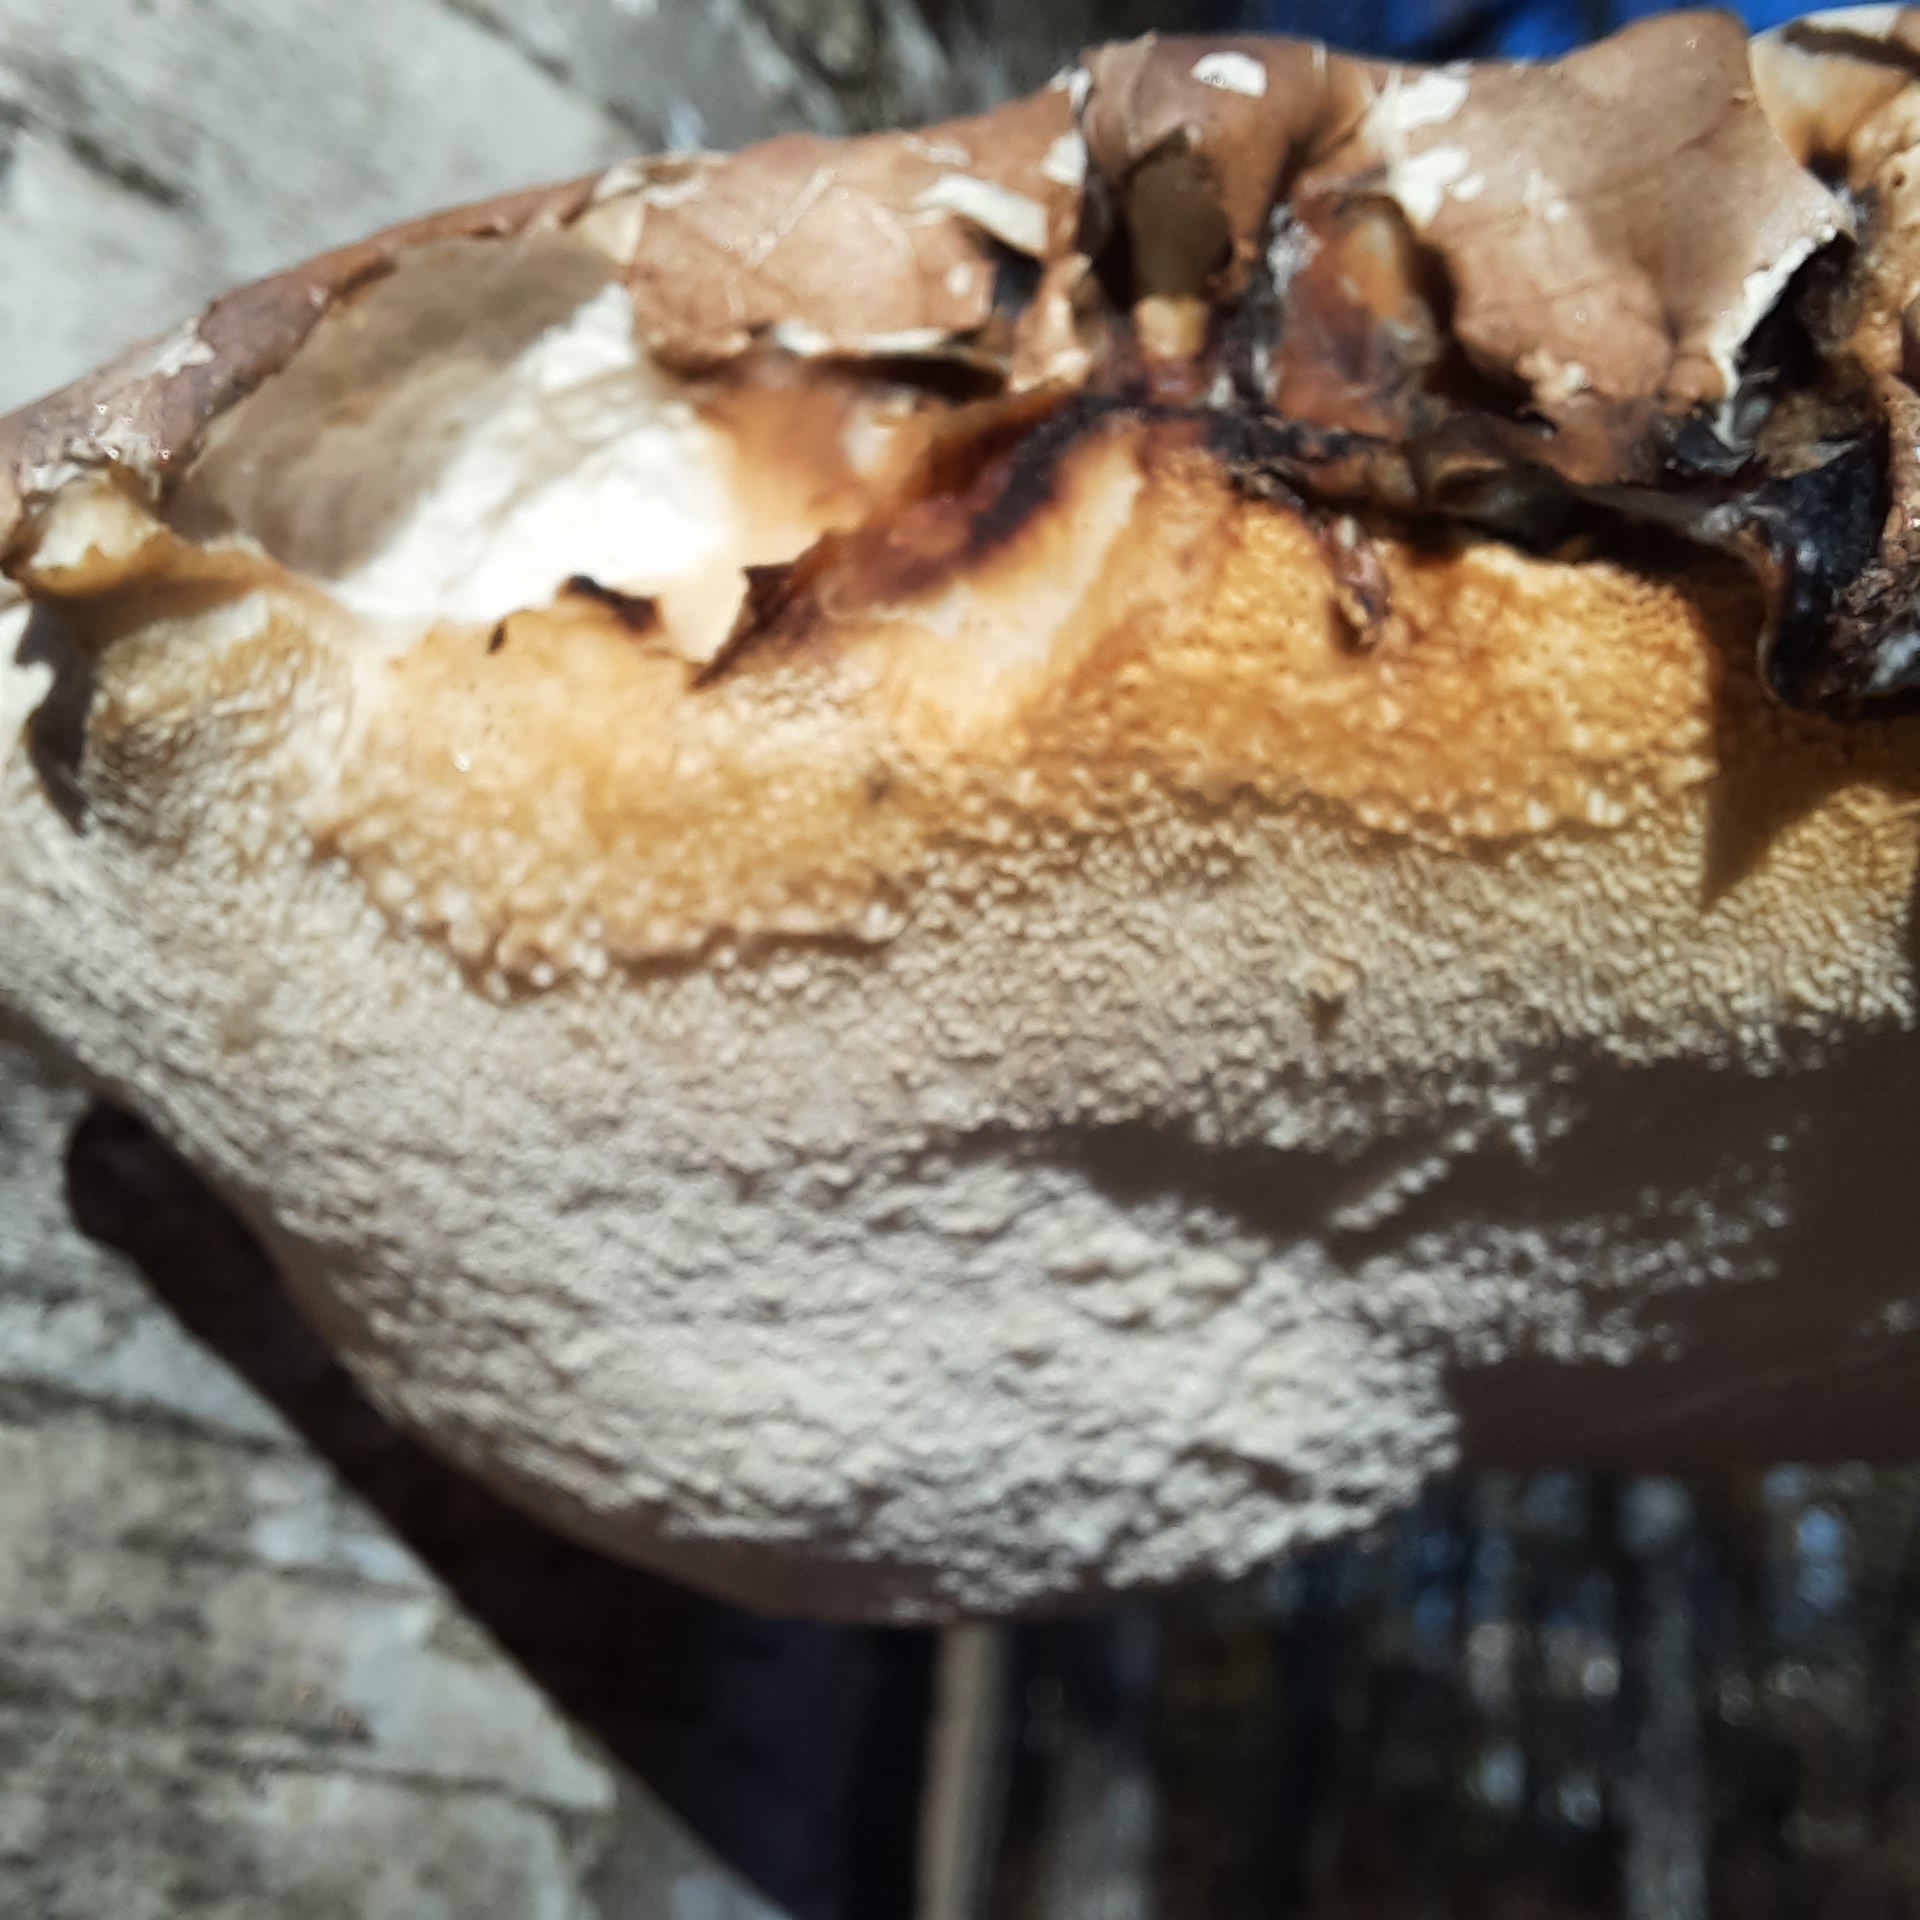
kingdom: Fungi
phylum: Basidiomycota
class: Agaricomycetes
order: Polyporales
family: Fomitopsidaceae
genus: Fomitopsis
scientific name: Fomitopsis betulina
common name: Birch polypore
